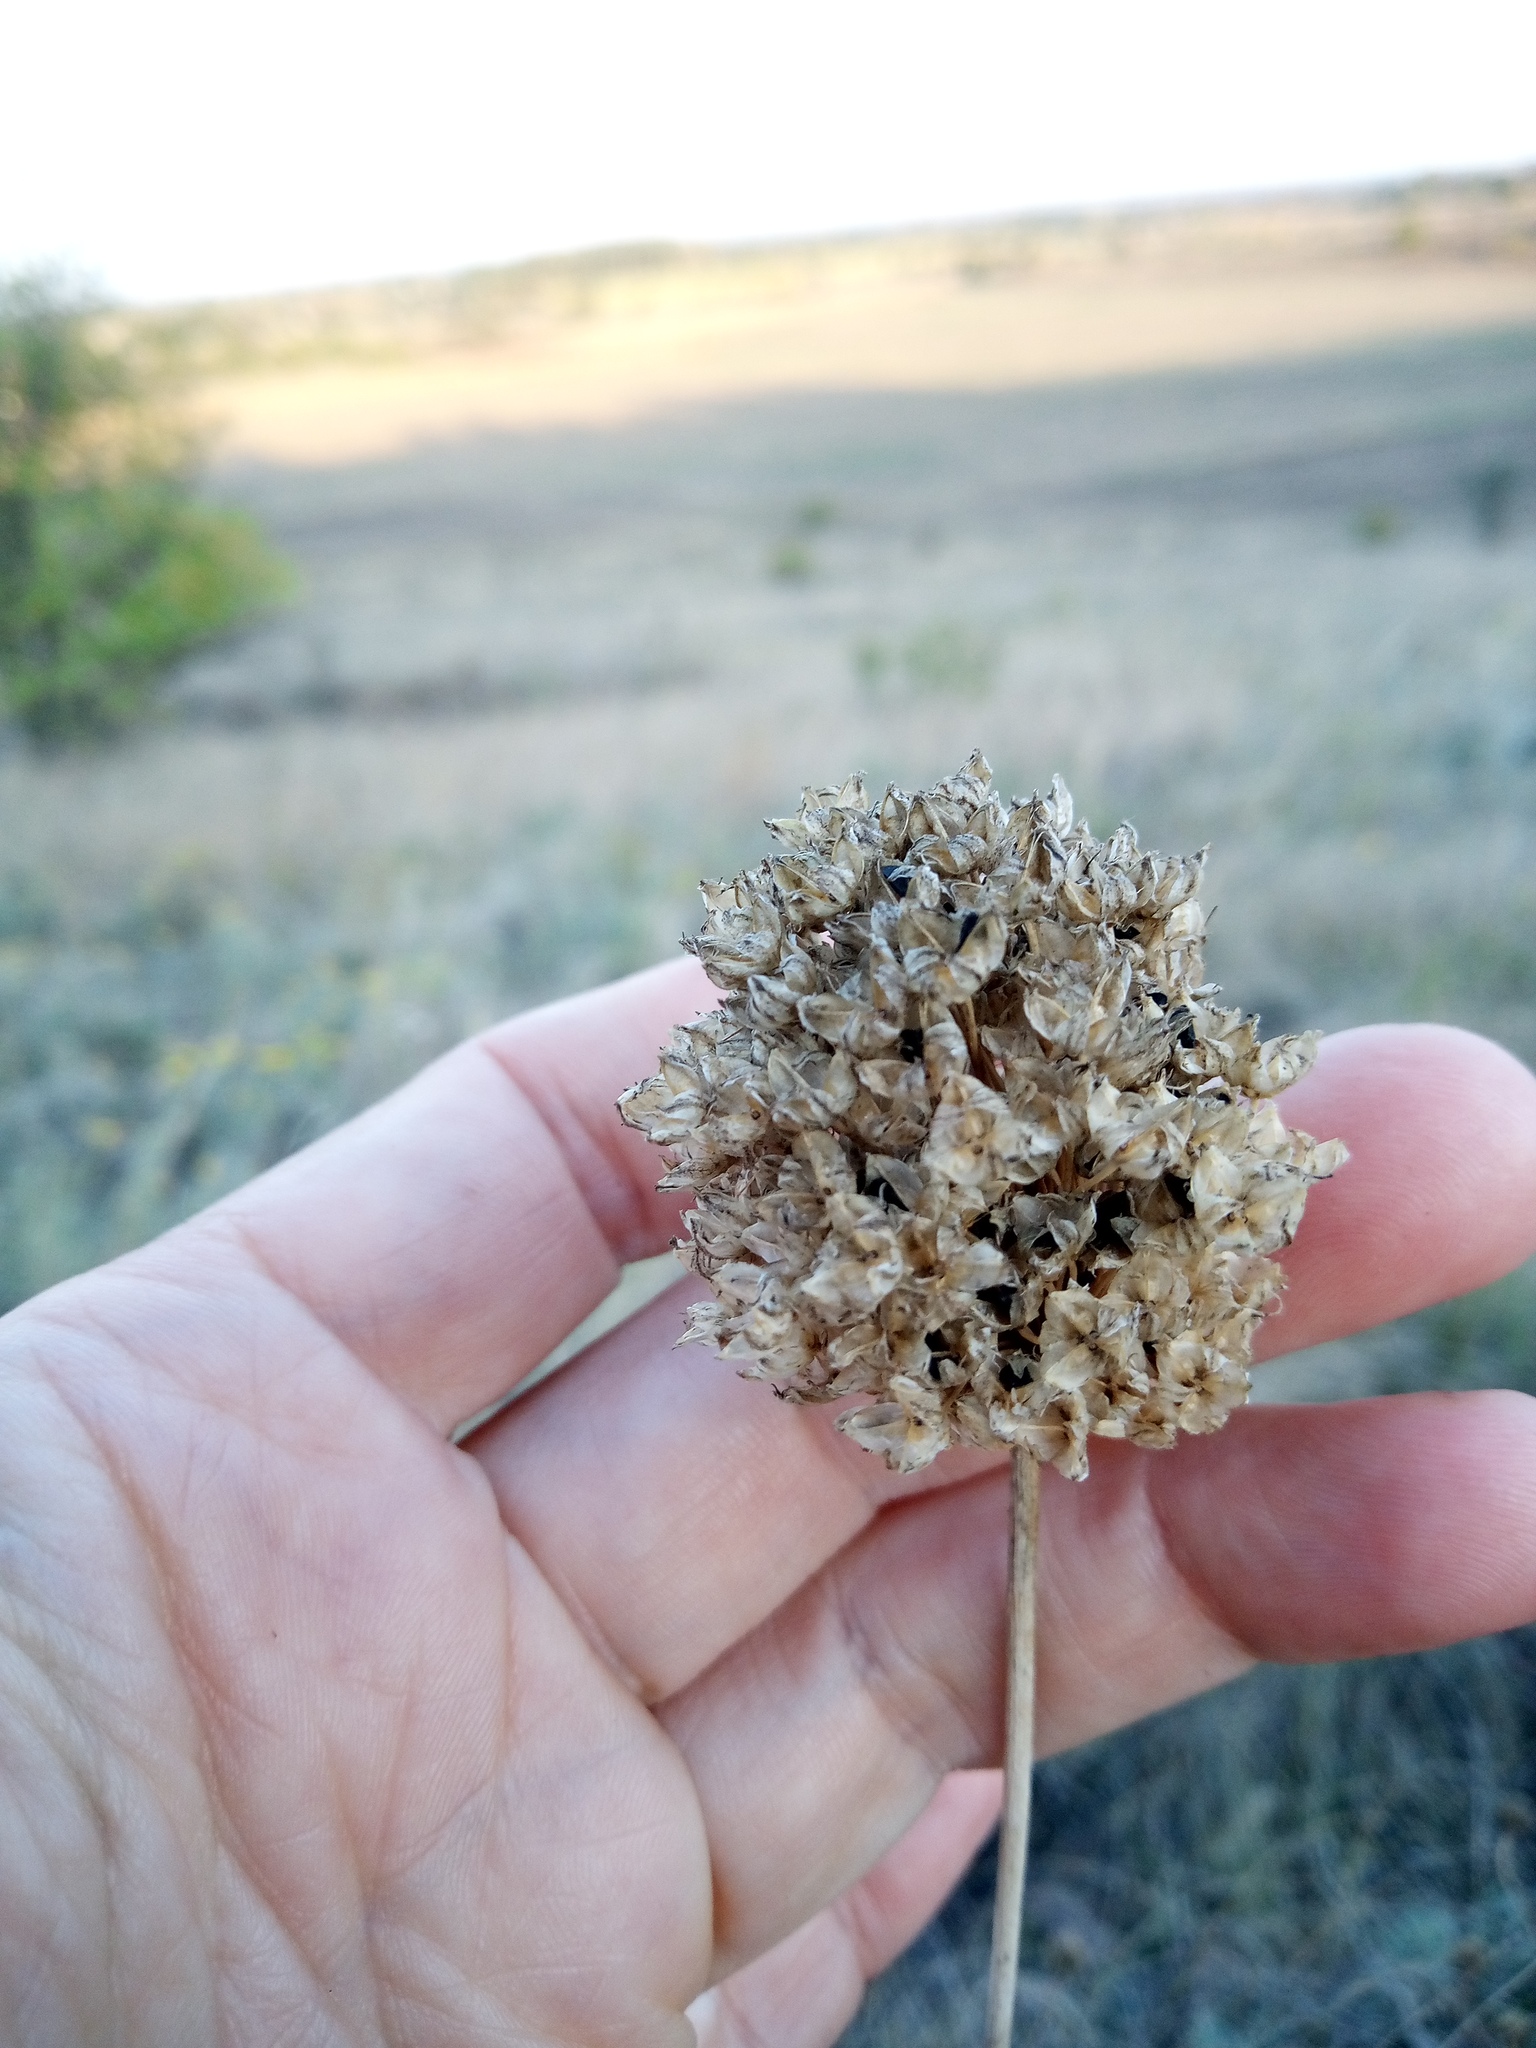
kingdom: Plantae
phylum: Tracheophyta
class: Liliopsida
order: Asparagales
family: Amaryllidaceae
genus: Allium
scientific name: Allium rotundum
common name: Sand leek
